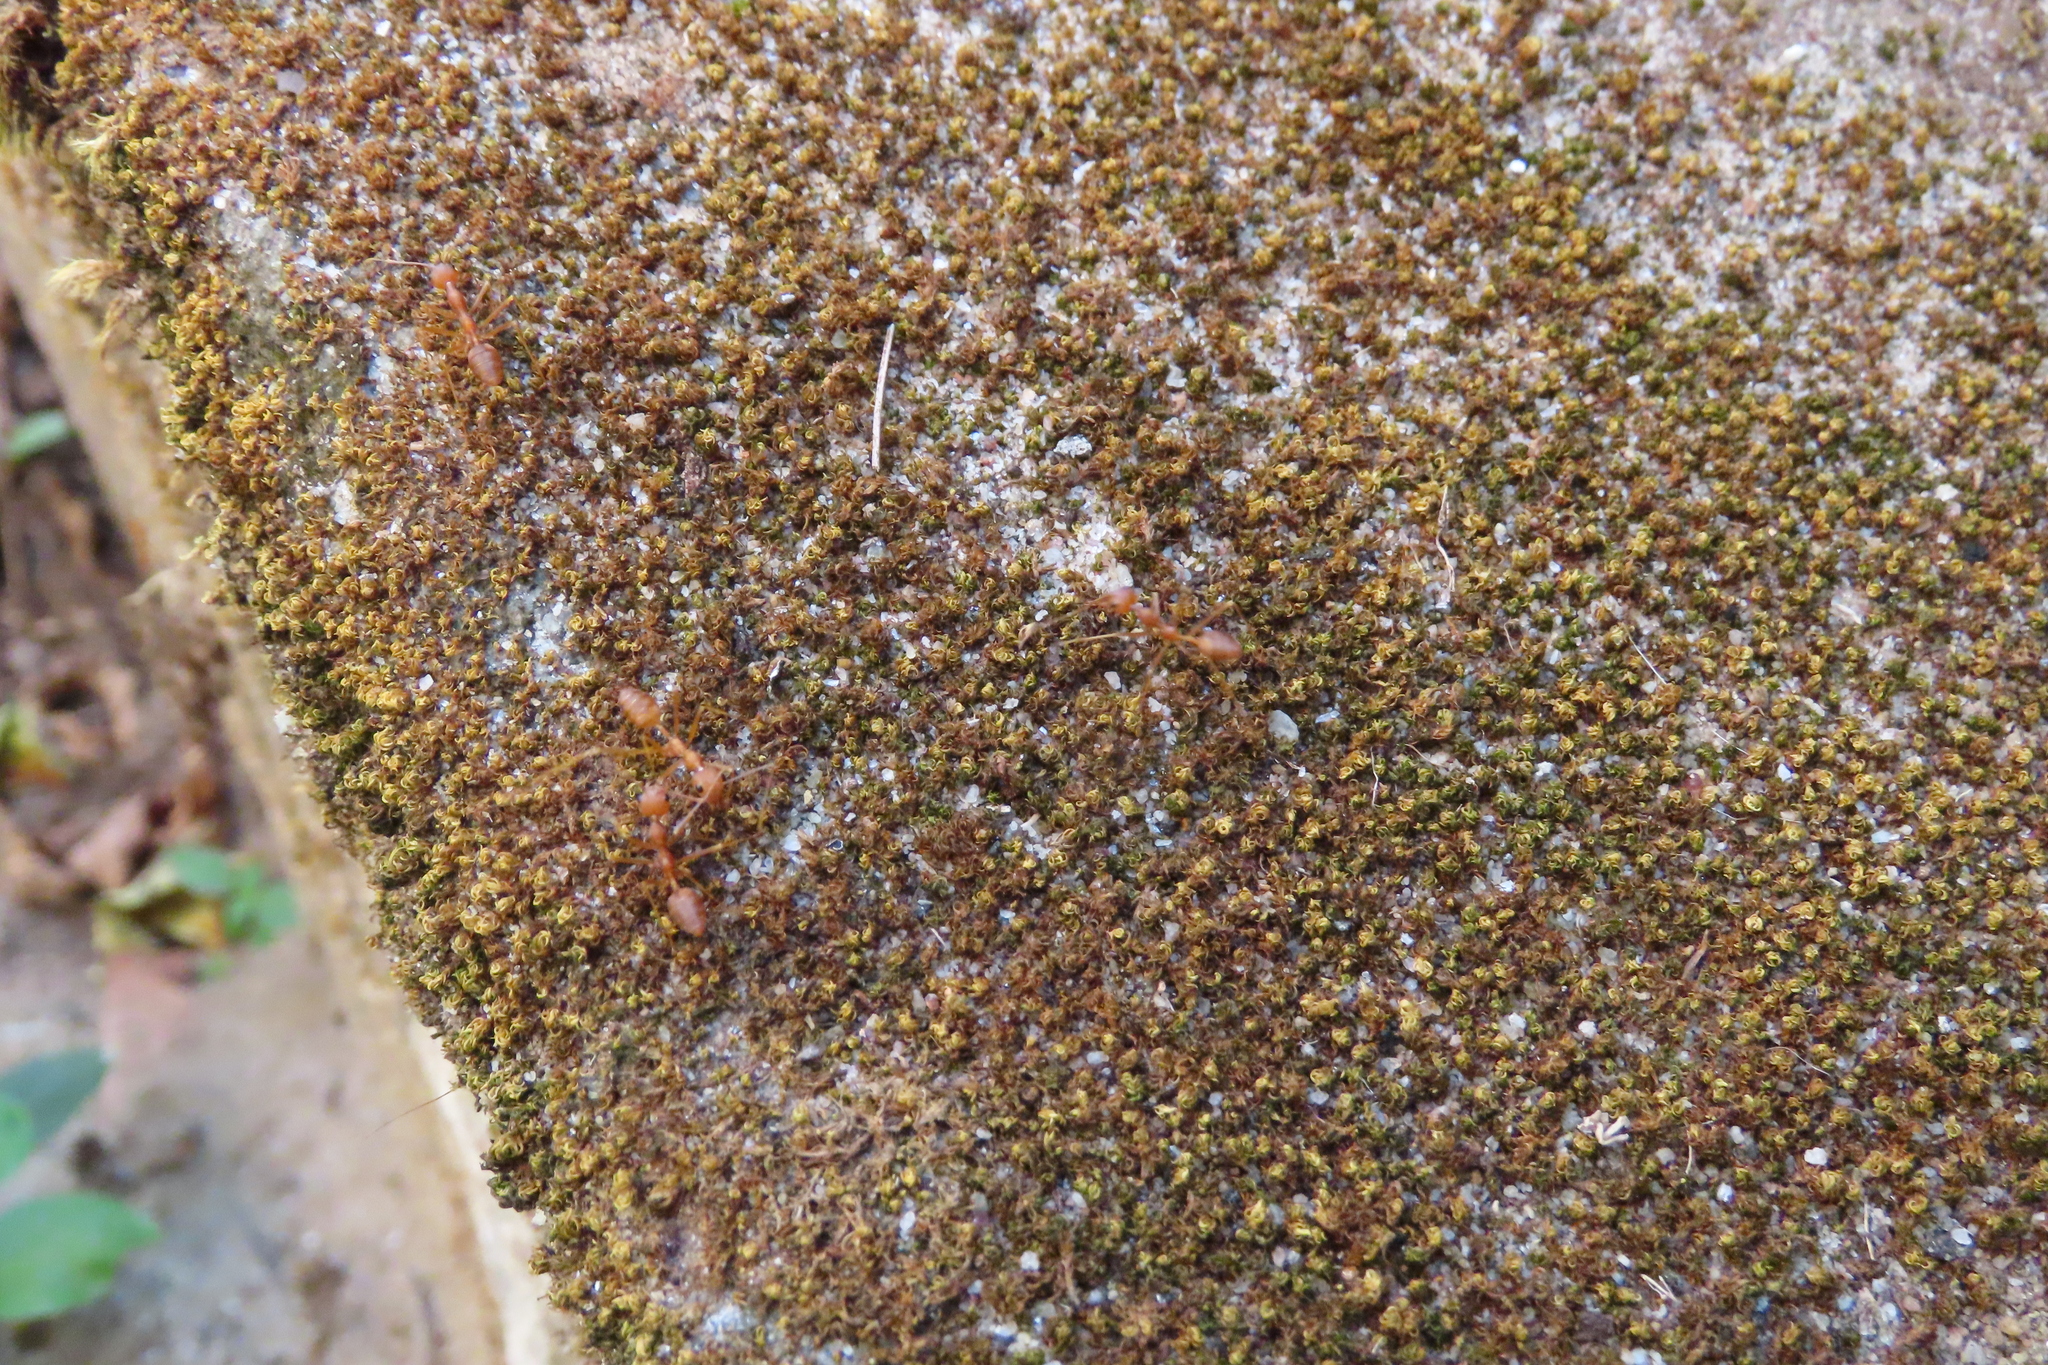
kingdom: Animalia
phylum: Arthropoda
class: Insecta
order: Hymenoptera
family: Formicidae
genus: Oecophylla
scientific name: Oecophylla smaragdina
